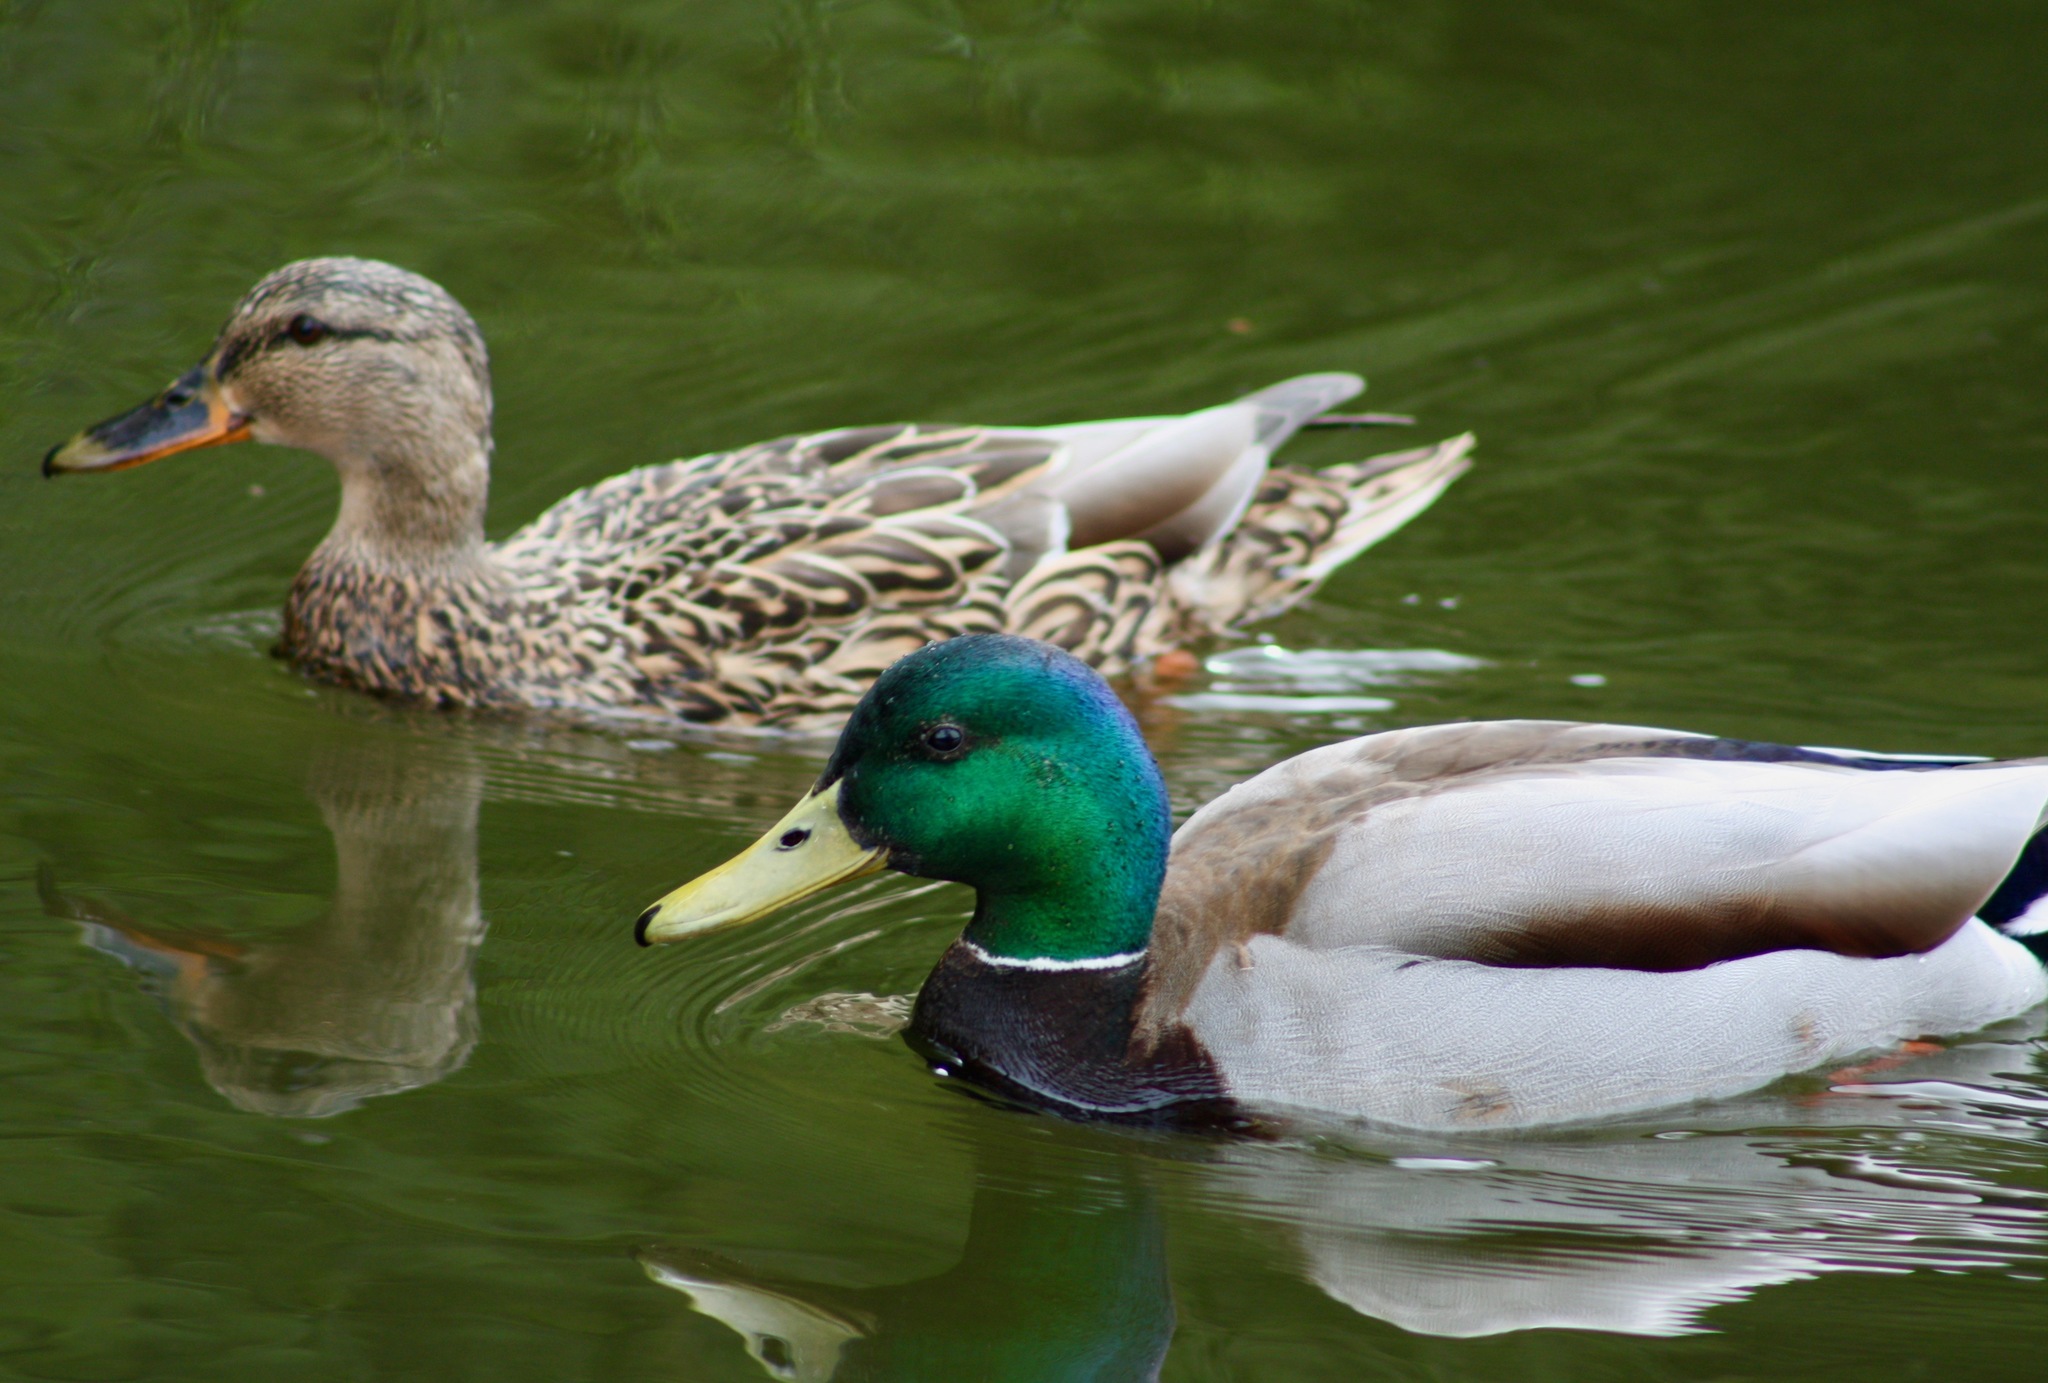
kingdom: Animalia
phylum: Chordata
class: Aves
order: Anseriformes
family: Anatidae
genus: Anas
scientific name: Anas platyrhynchos
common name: Mallard
